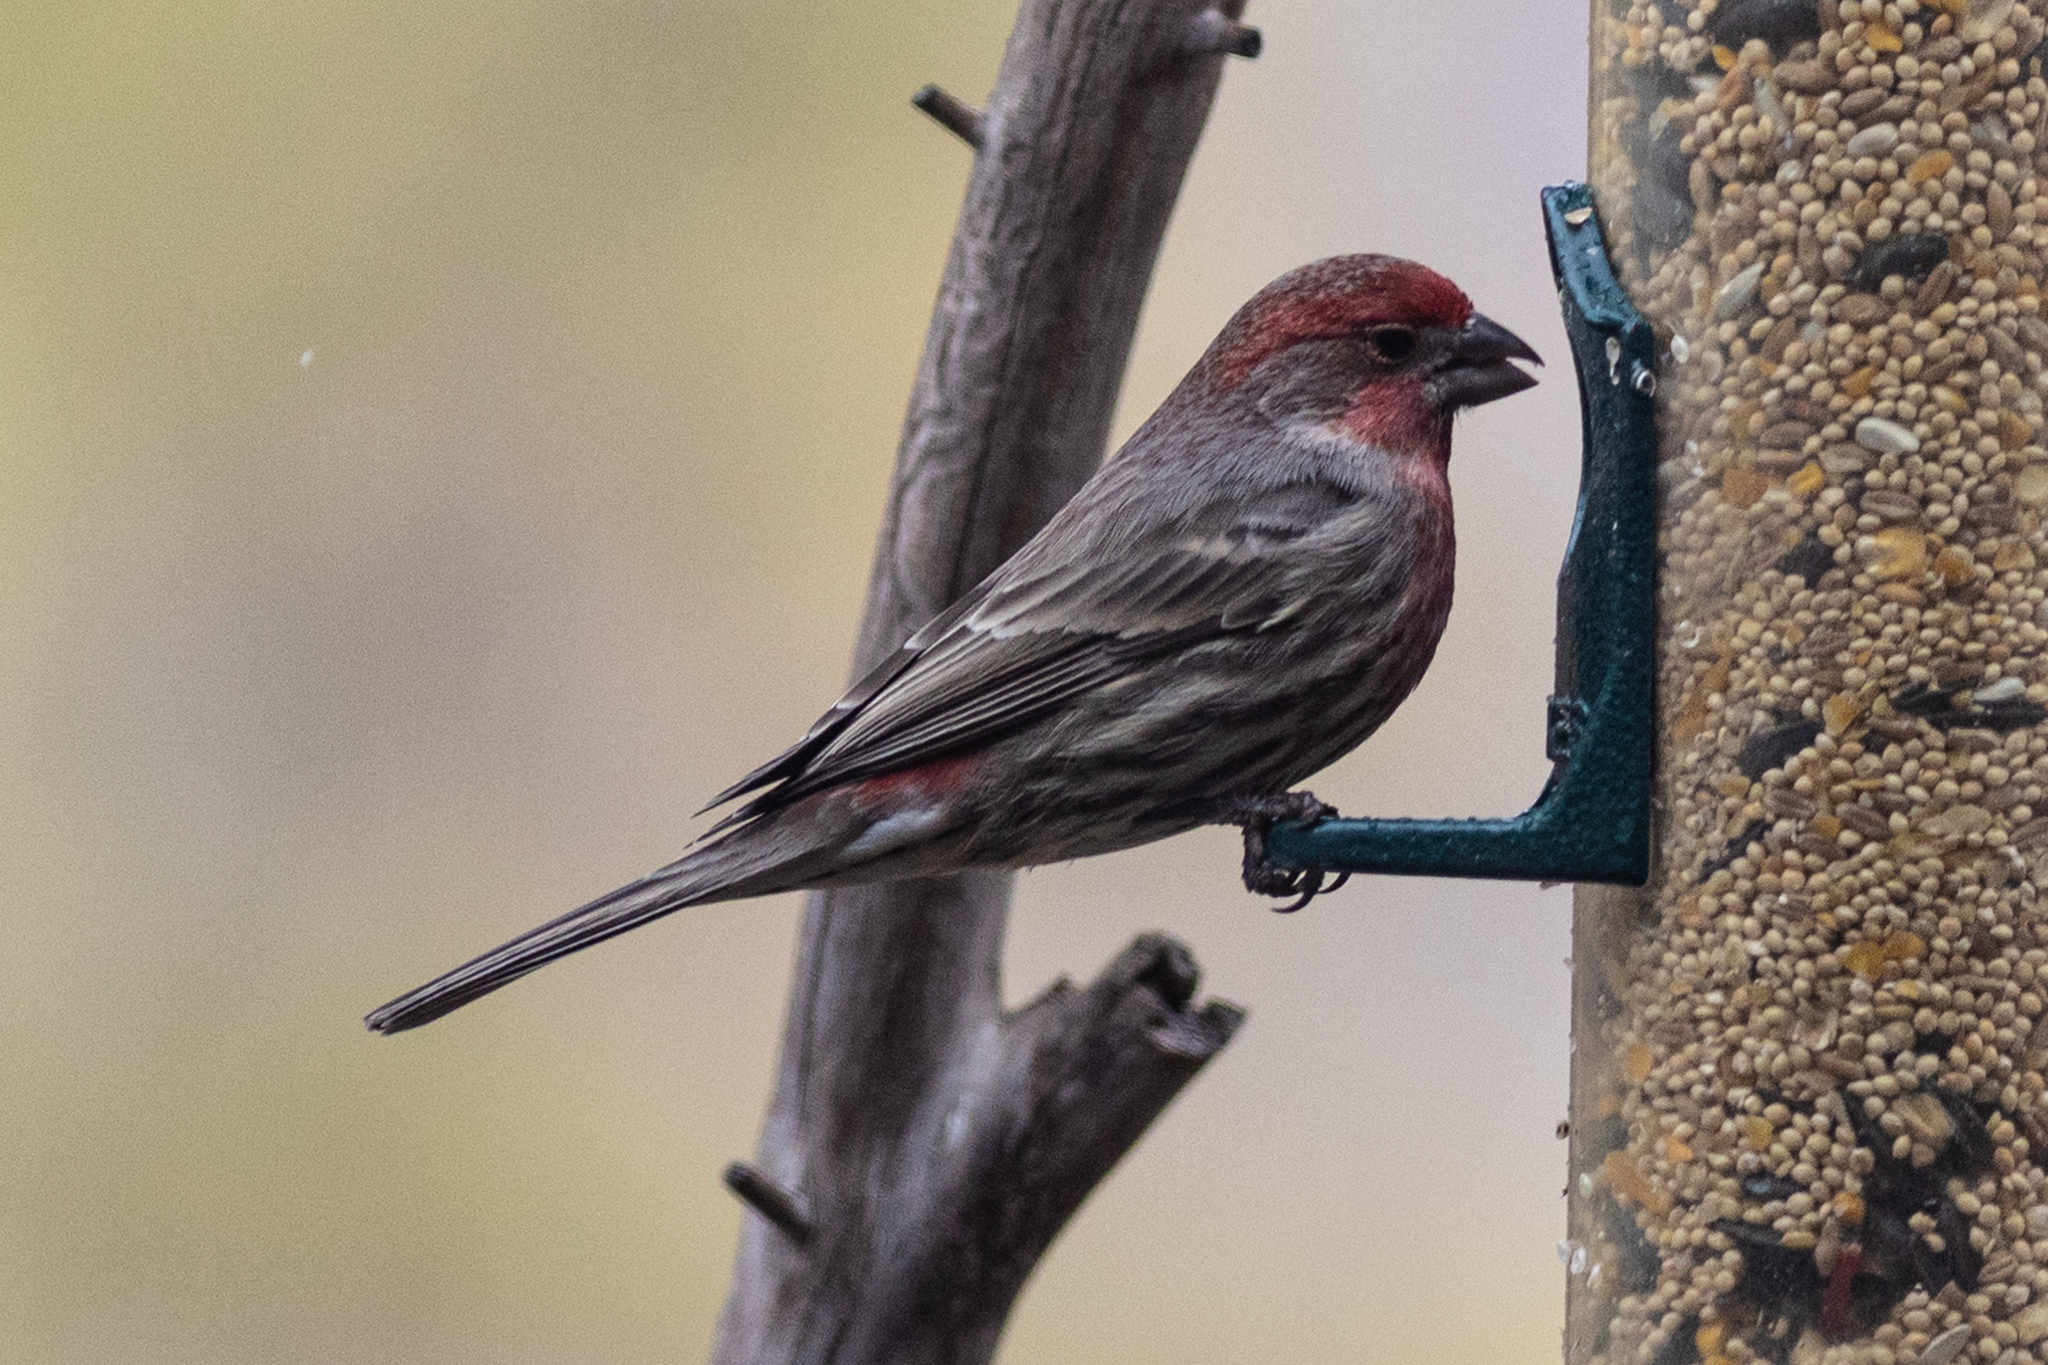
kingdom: Animalia
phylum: Chordata
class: Aves
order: Passeriformes
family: Fringillidae
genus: Haemorhous
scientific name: Haemorhous mexicanus
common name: House finch
